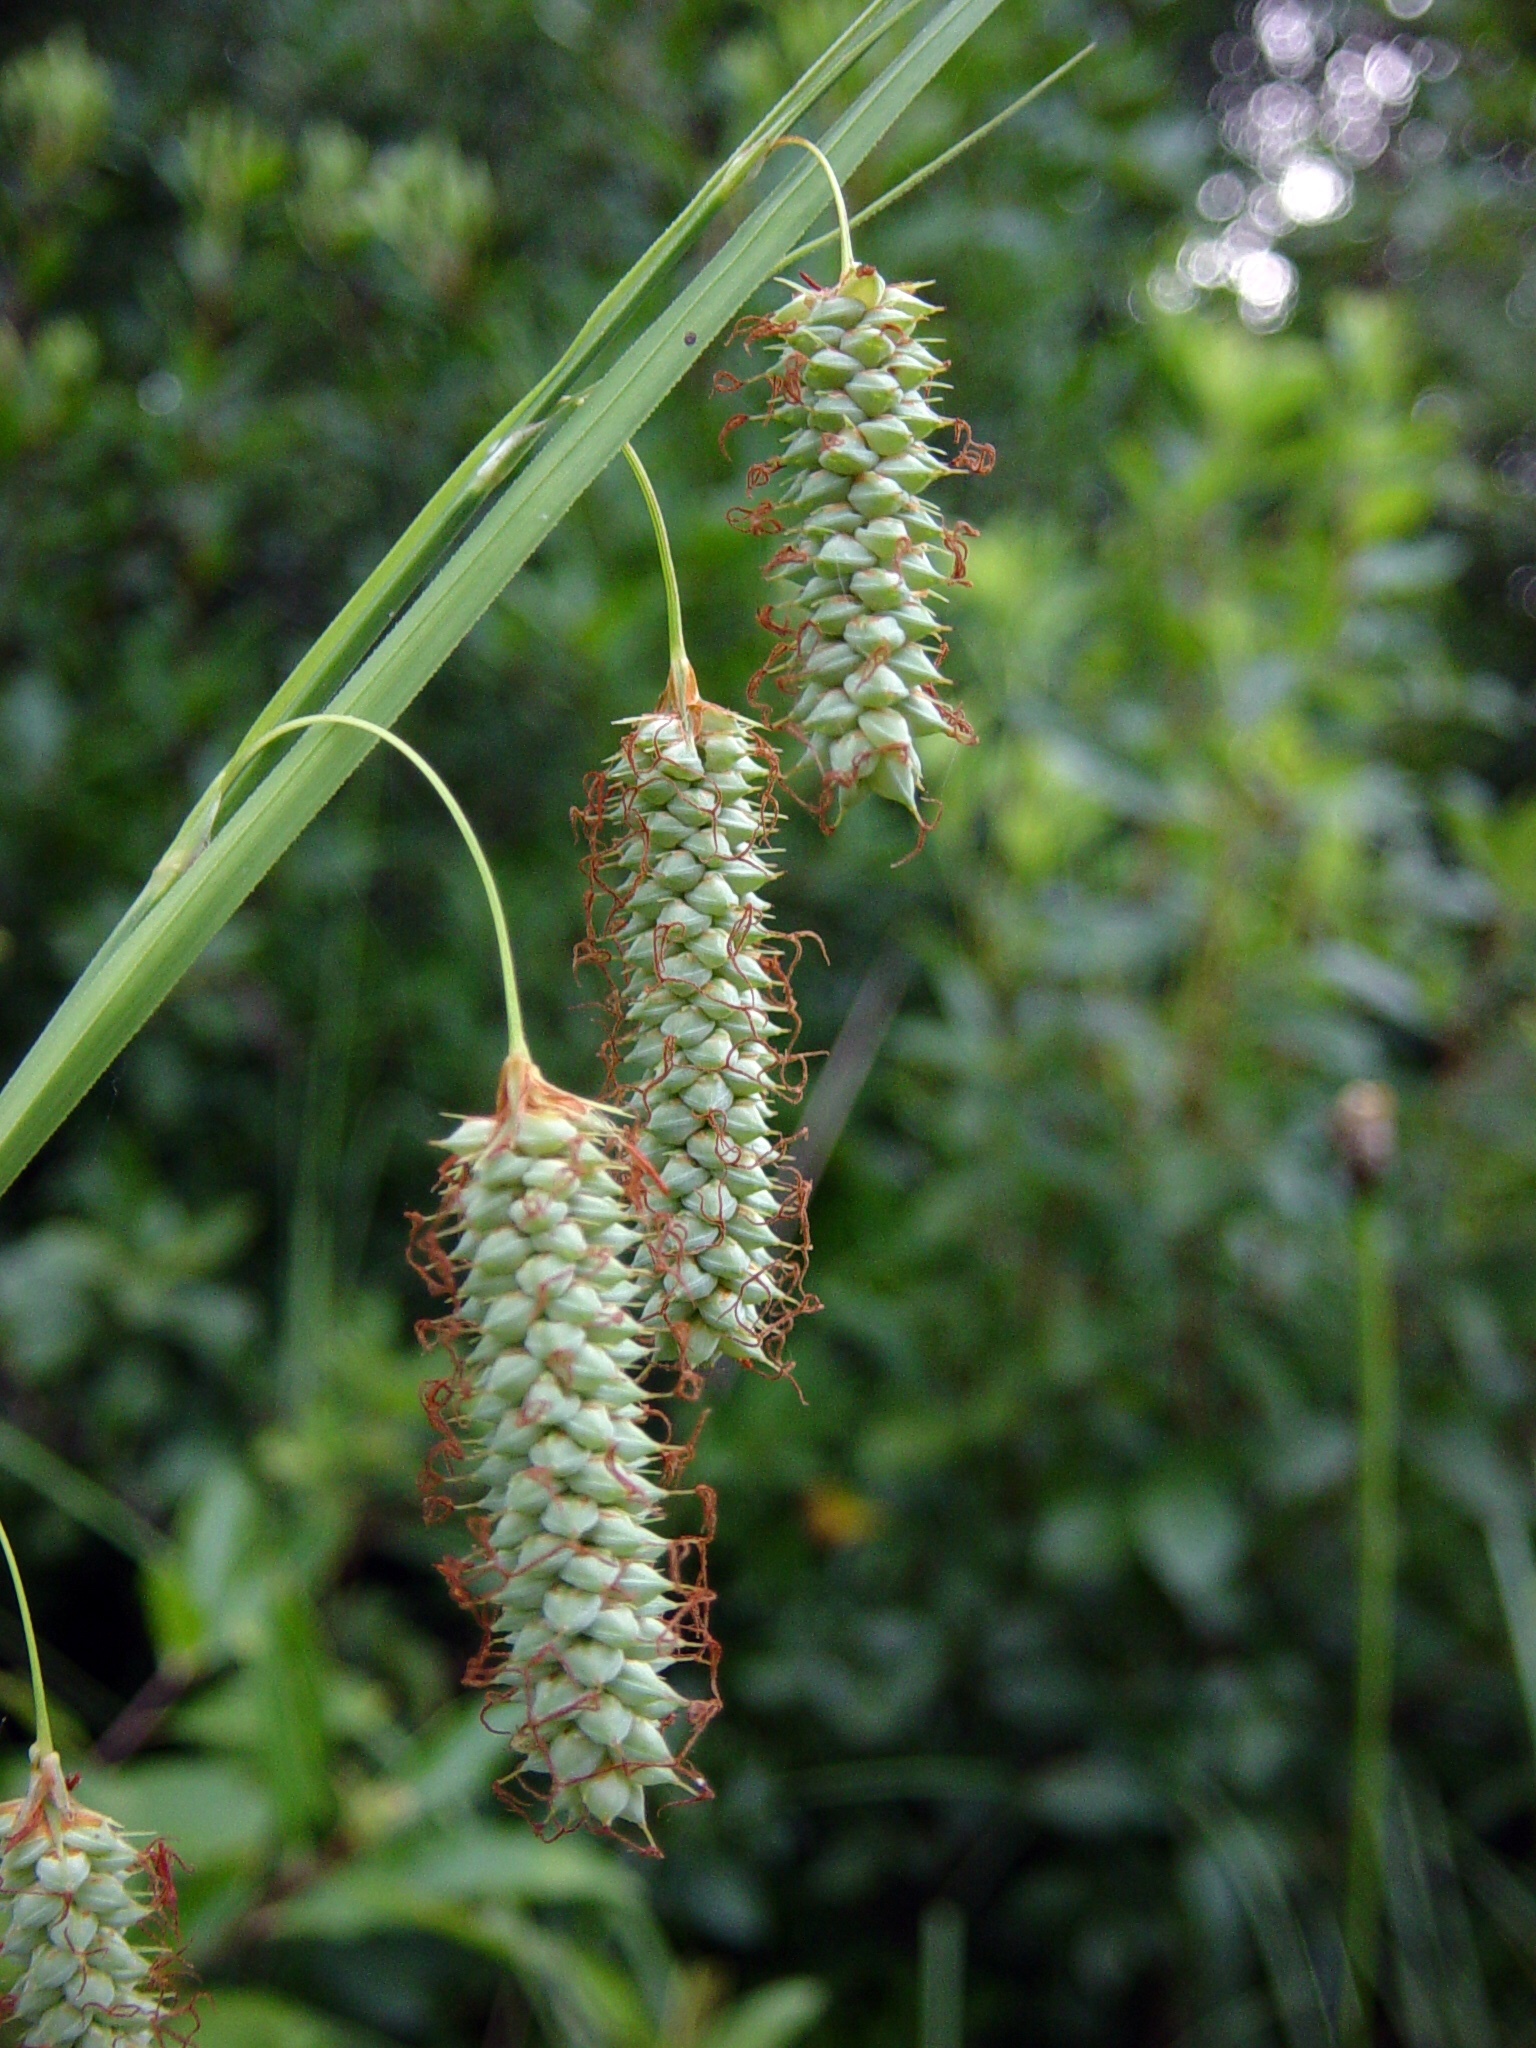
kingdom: Plantae
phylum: Tracheophyta
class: Liliopsida
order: Poales
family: Cyperaceae
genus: Carex
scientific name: Carex glaucescens
